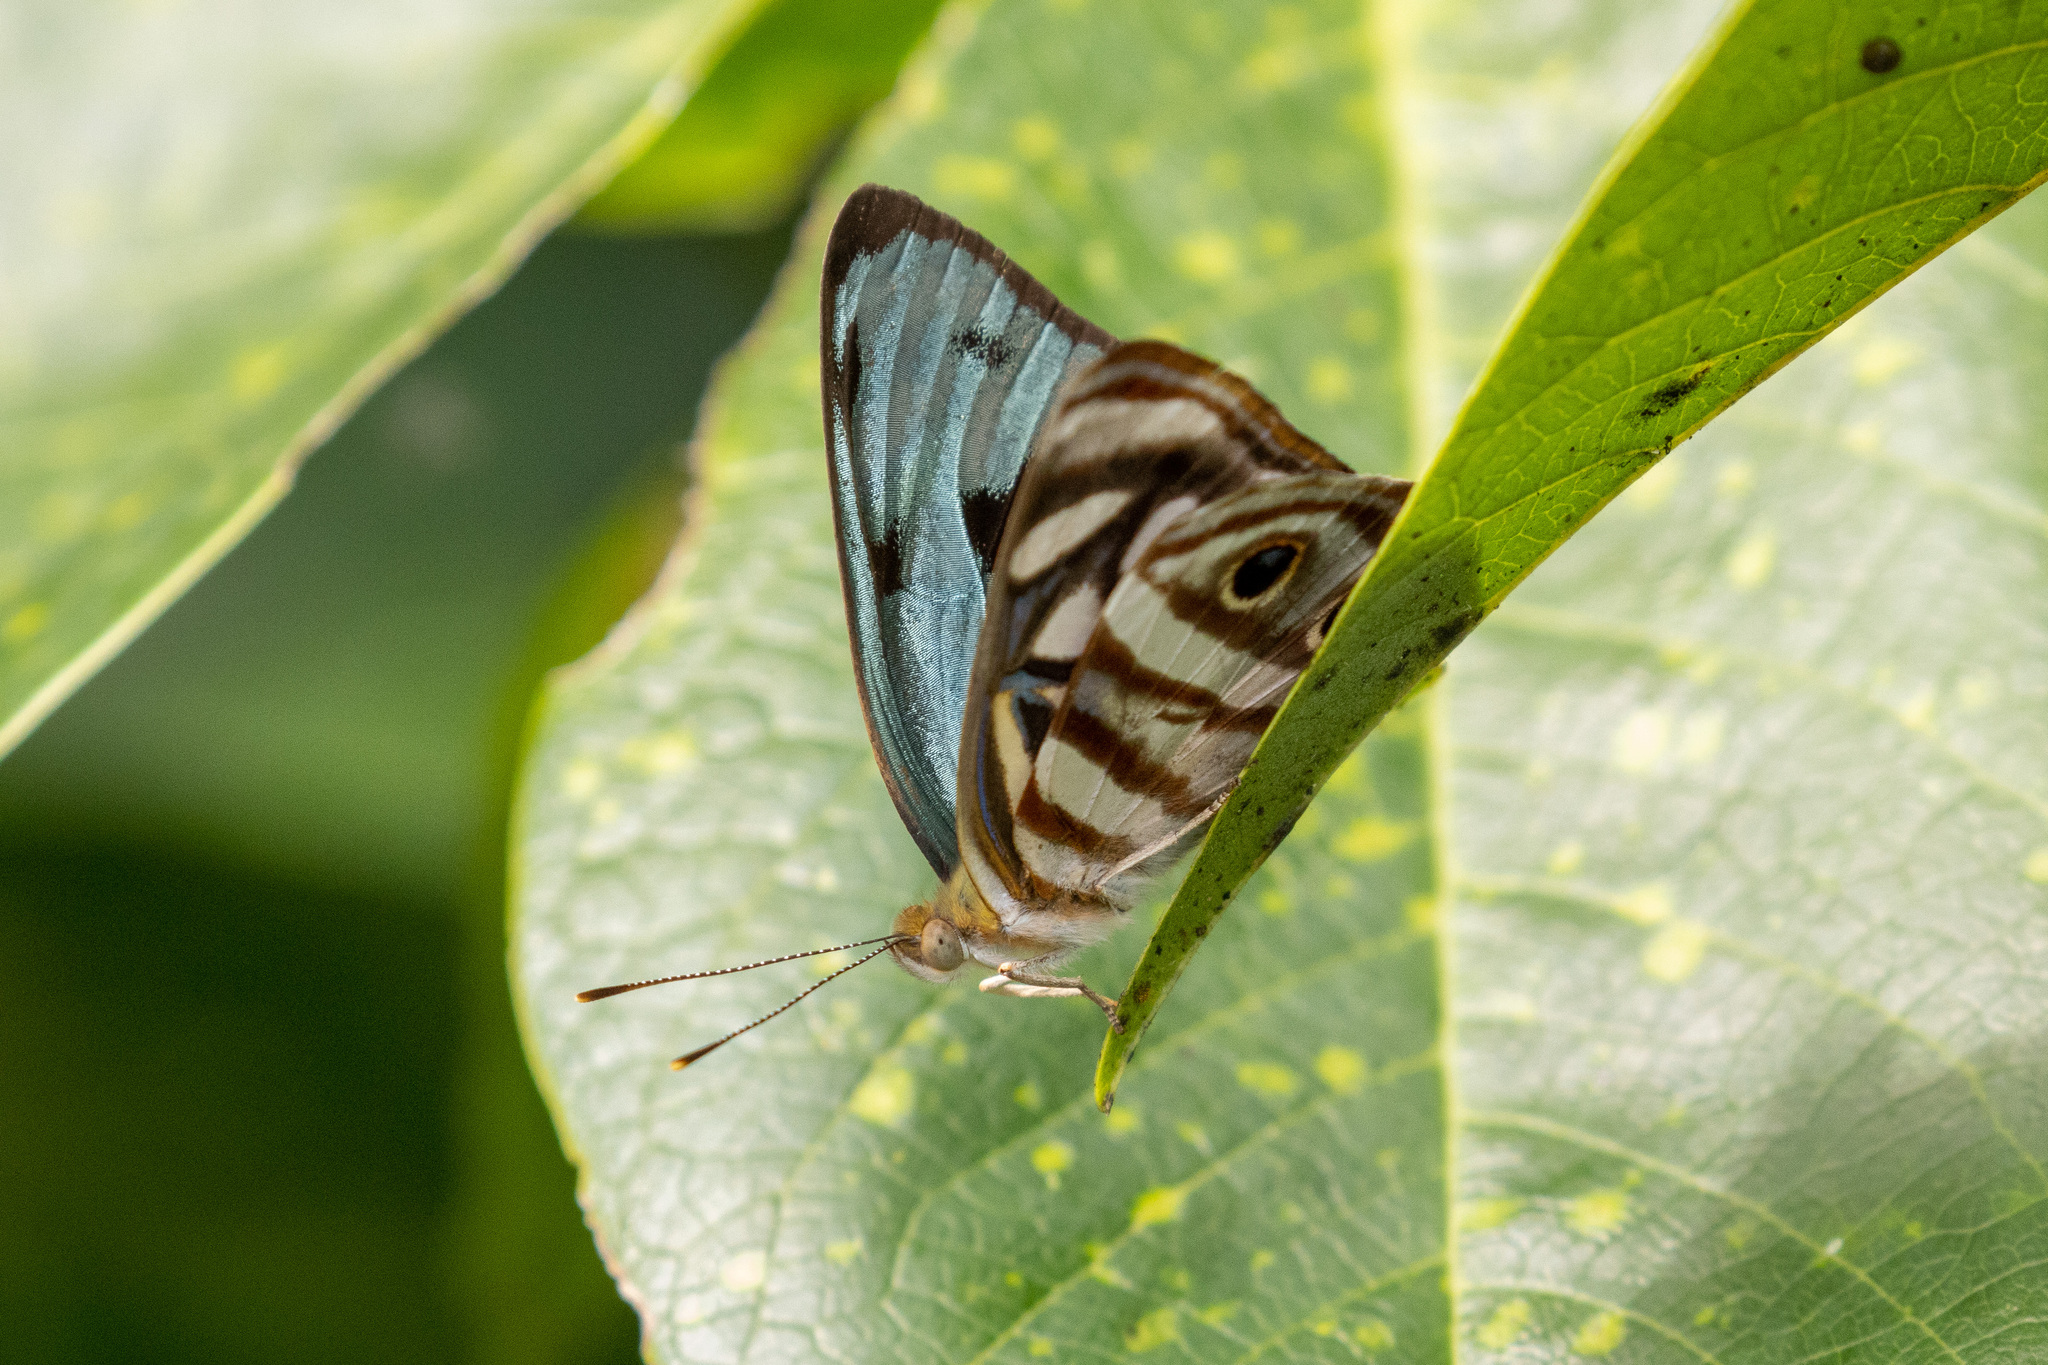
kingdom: Animalia
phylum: Arthropoda
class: Insecta
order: Lepidoptera
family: Nymphalidae
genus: Dynamine
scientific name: Dynamine mylitta
